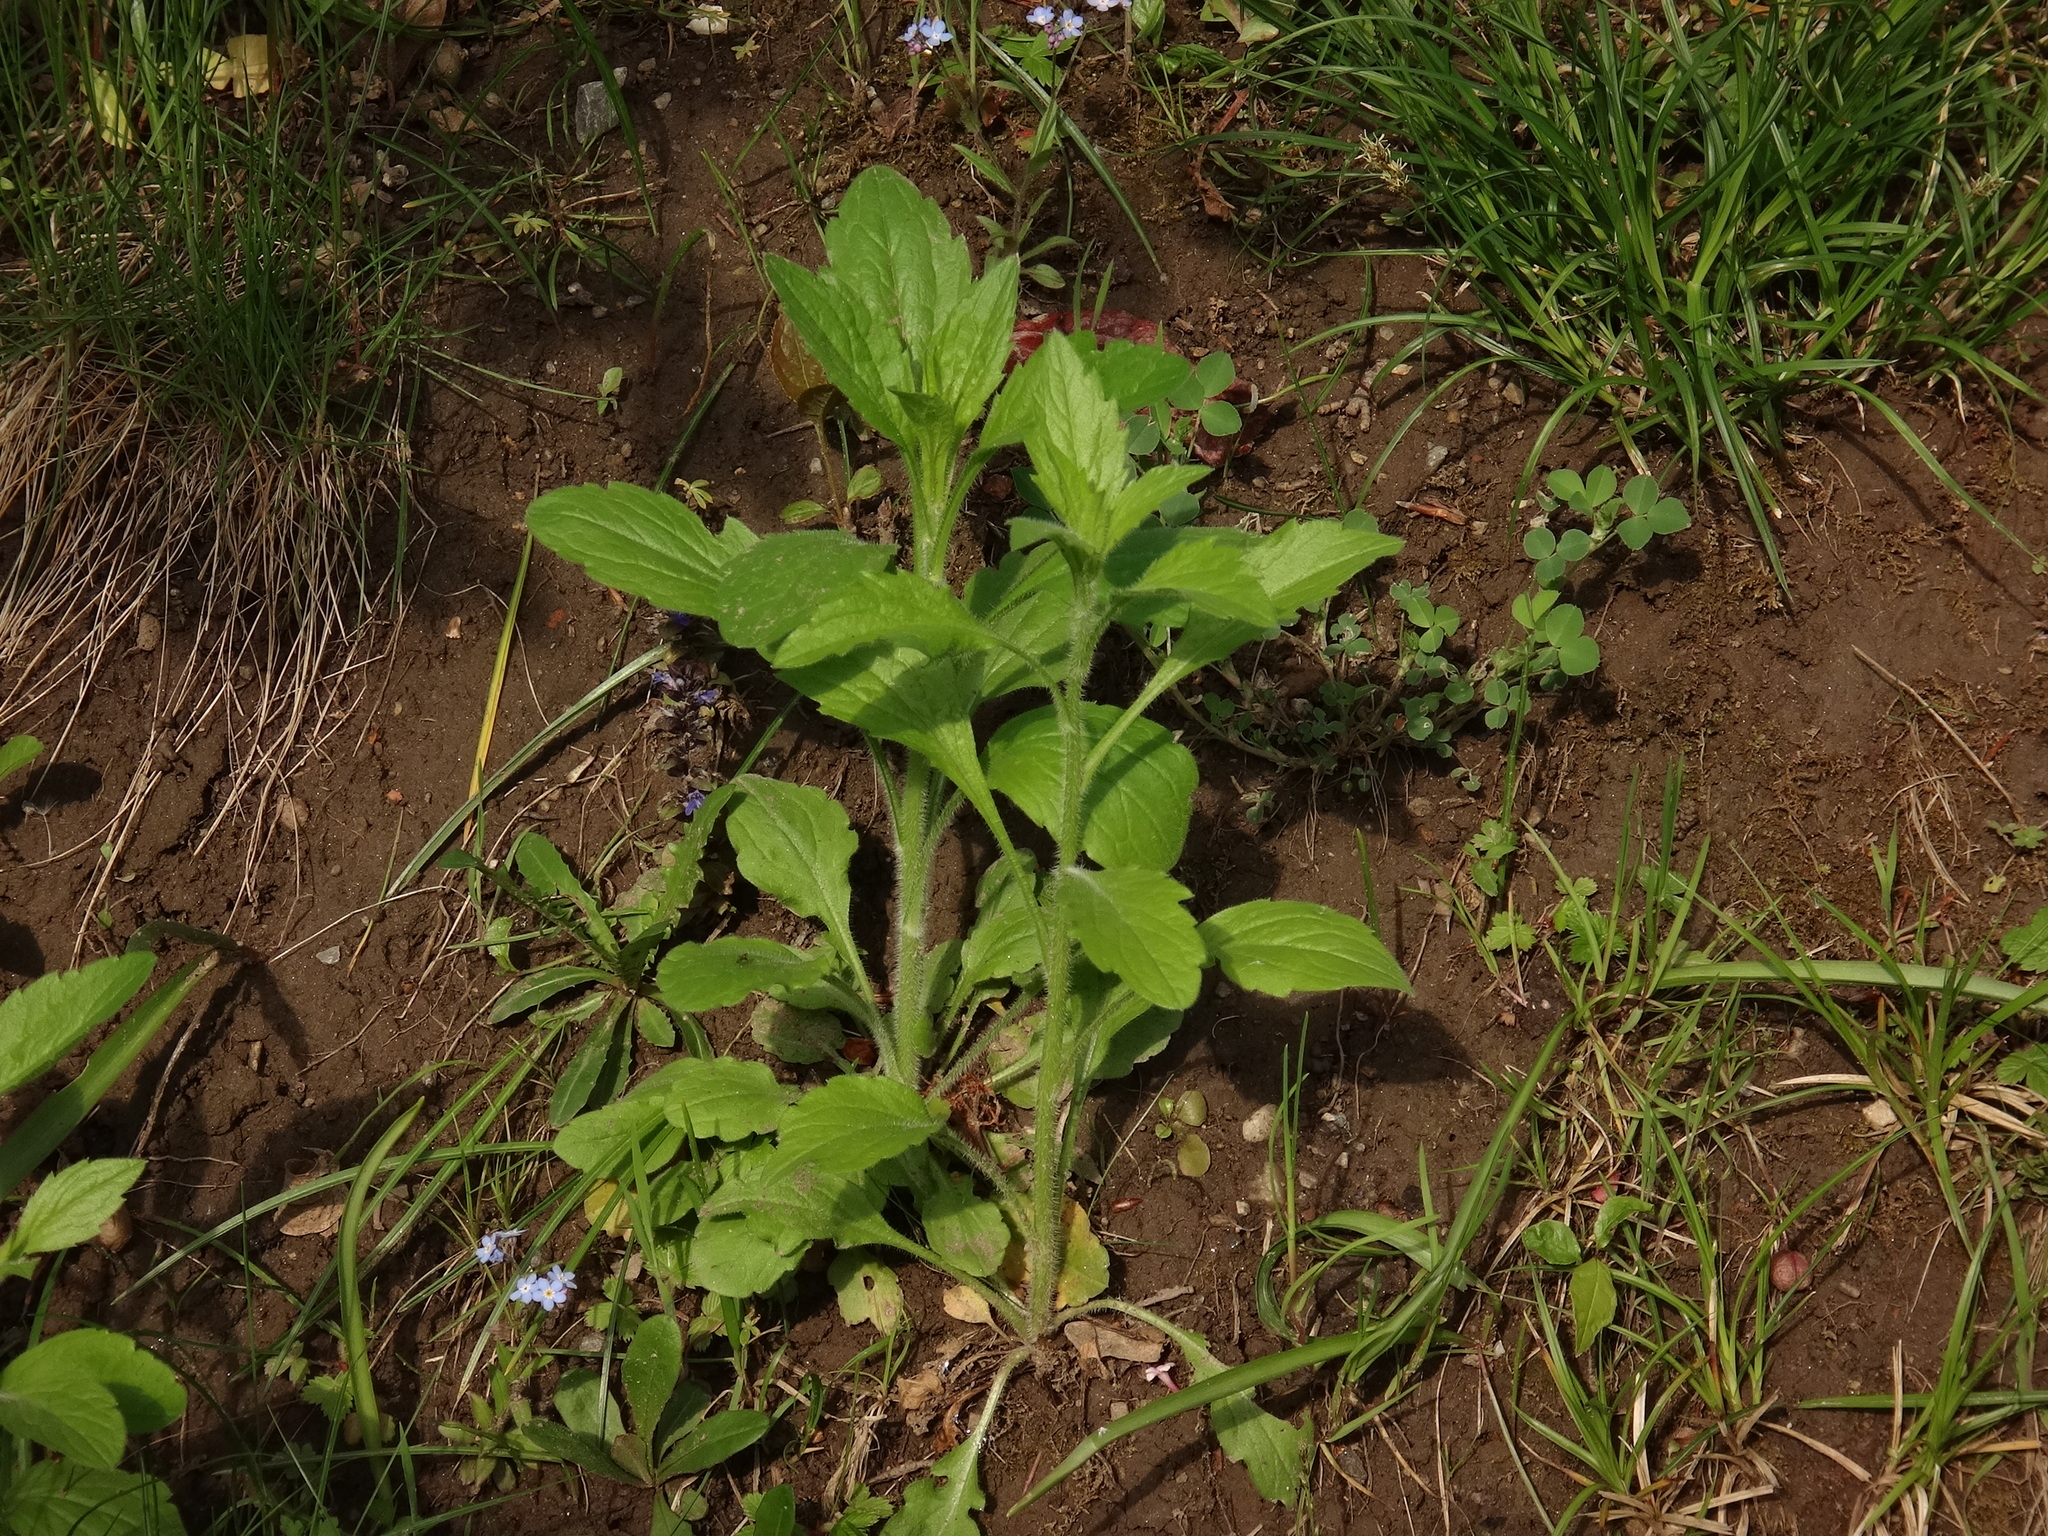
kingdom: Plantae
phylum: Tracheophyta
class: Magnoliopsida
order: Asterales
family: Asteraceae
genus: Erigeron
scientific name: Erigeron annuus
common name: Tall fleabane
